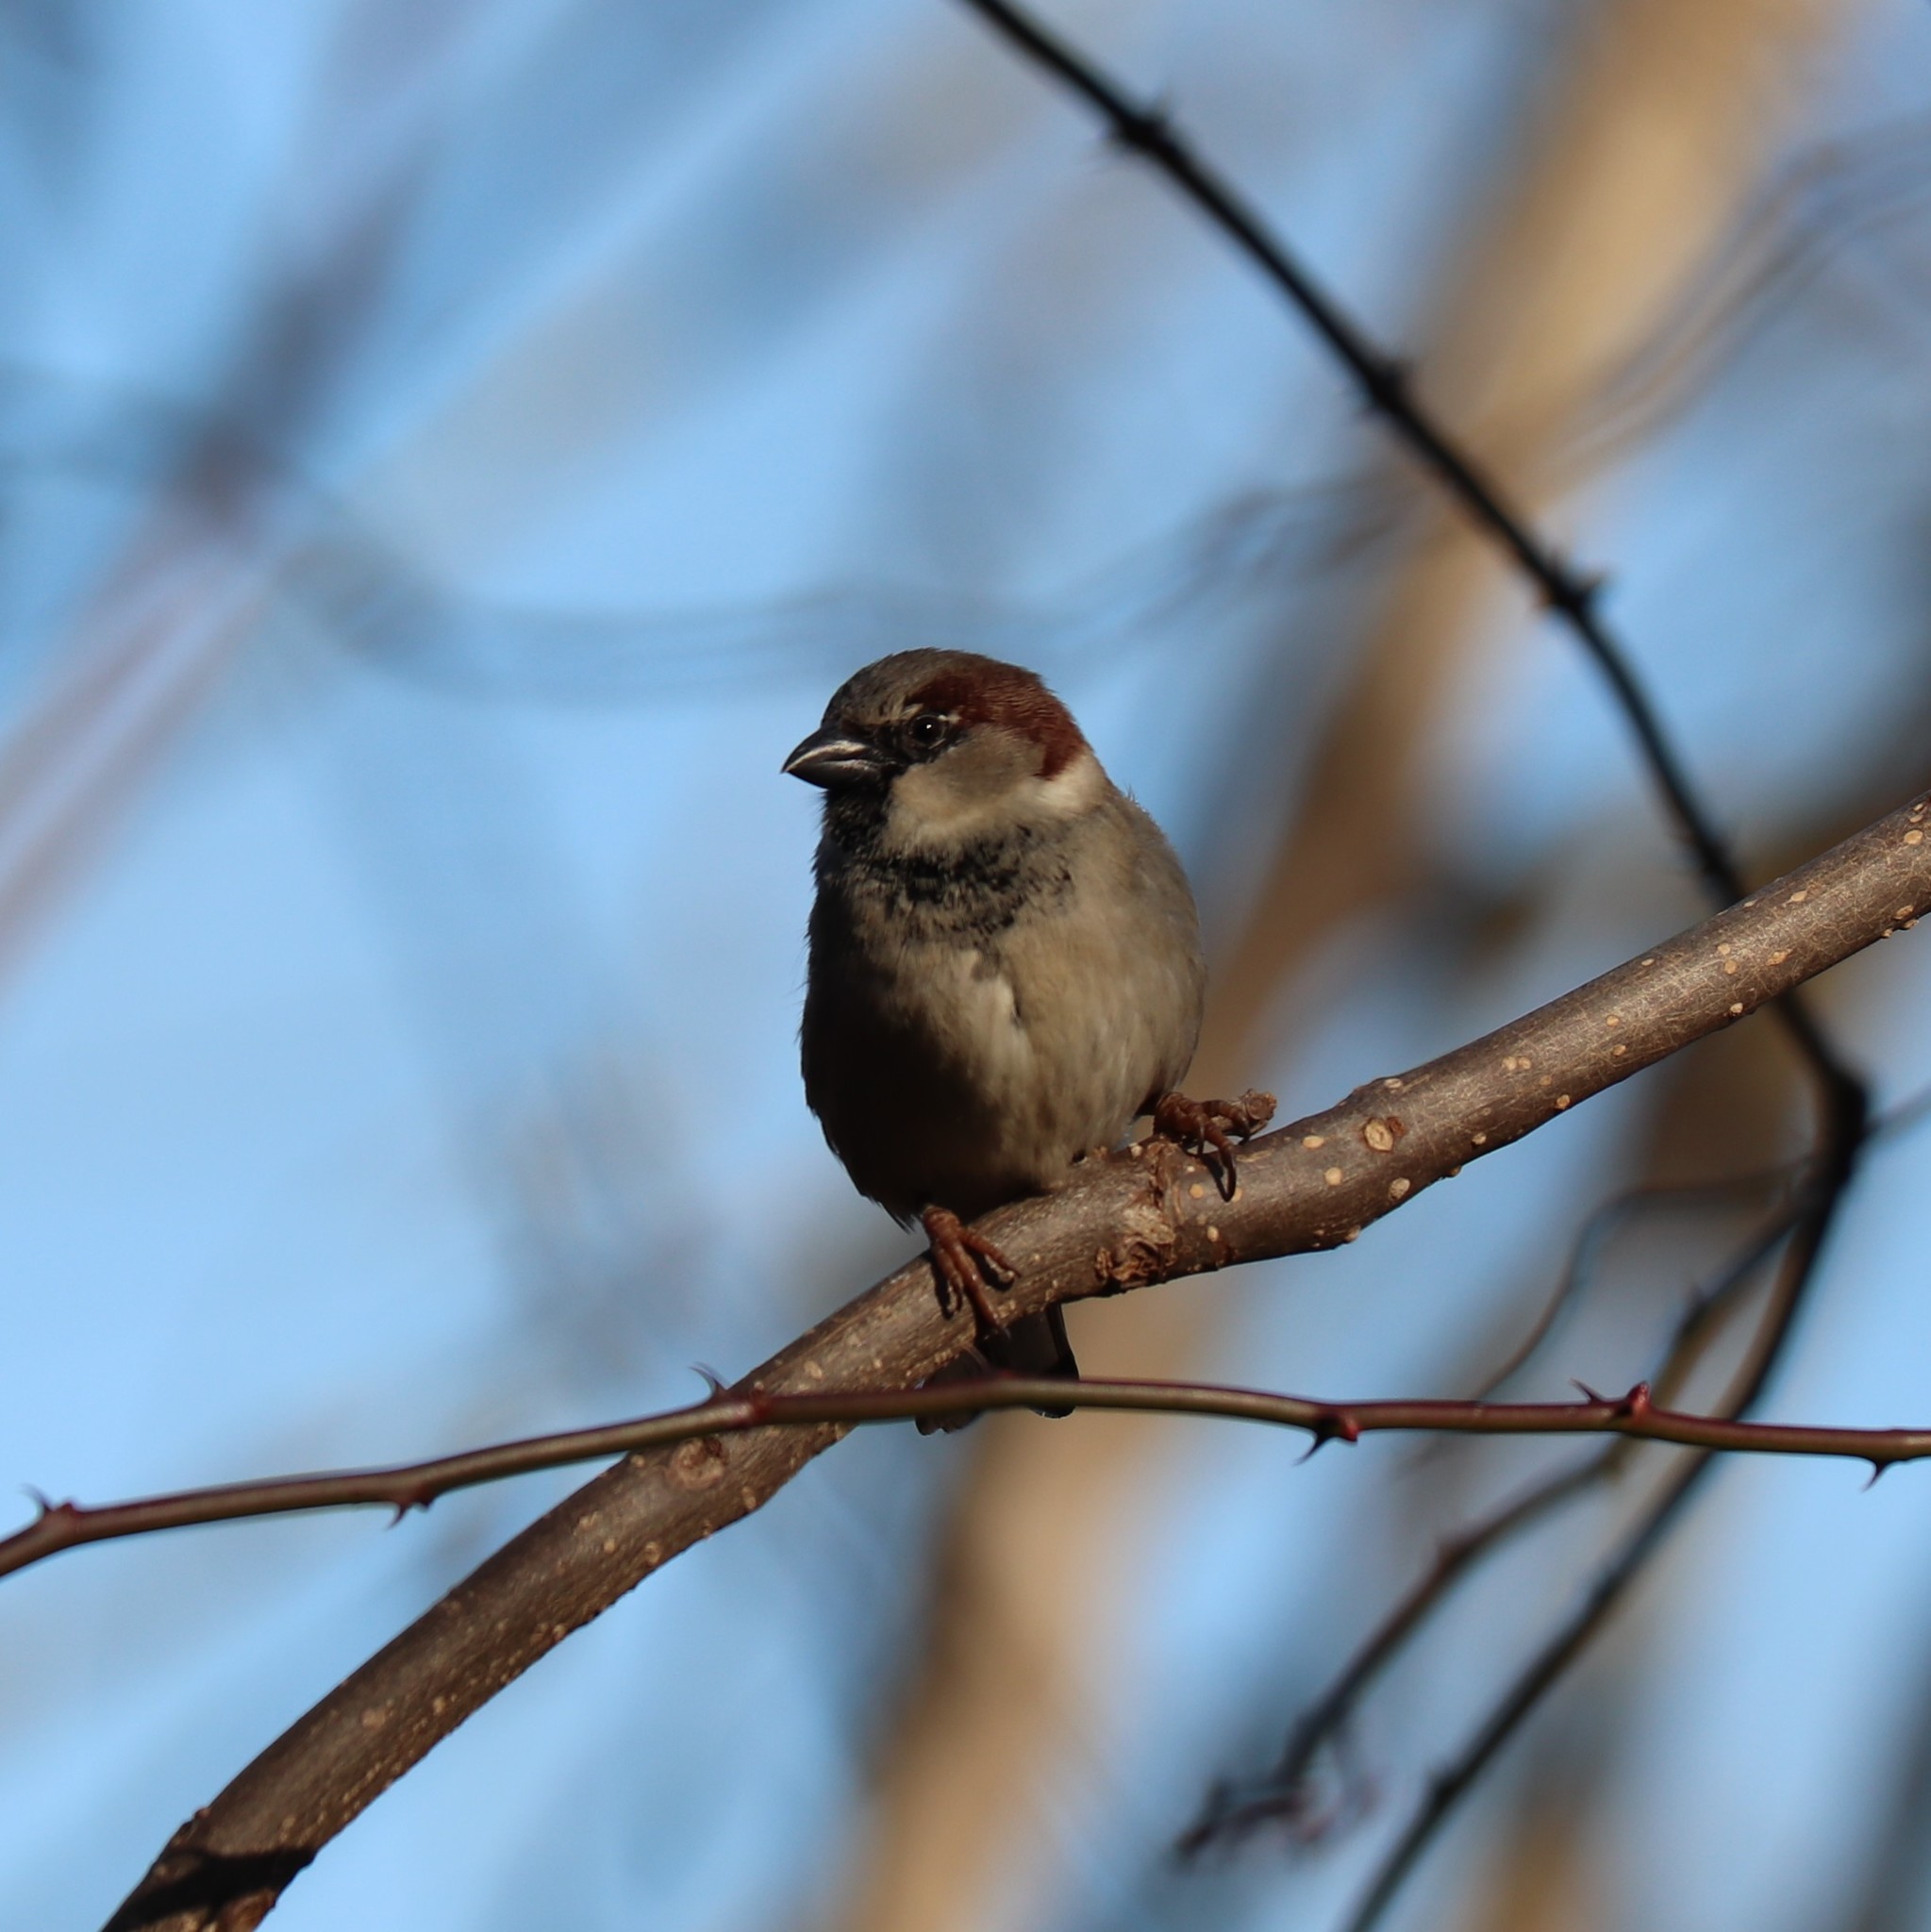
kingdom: Animalia
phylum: Chordata
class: Aves
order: Passeriformes
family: Passeridae
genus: Passer
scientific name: Passer domesticus
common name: House sparrow
